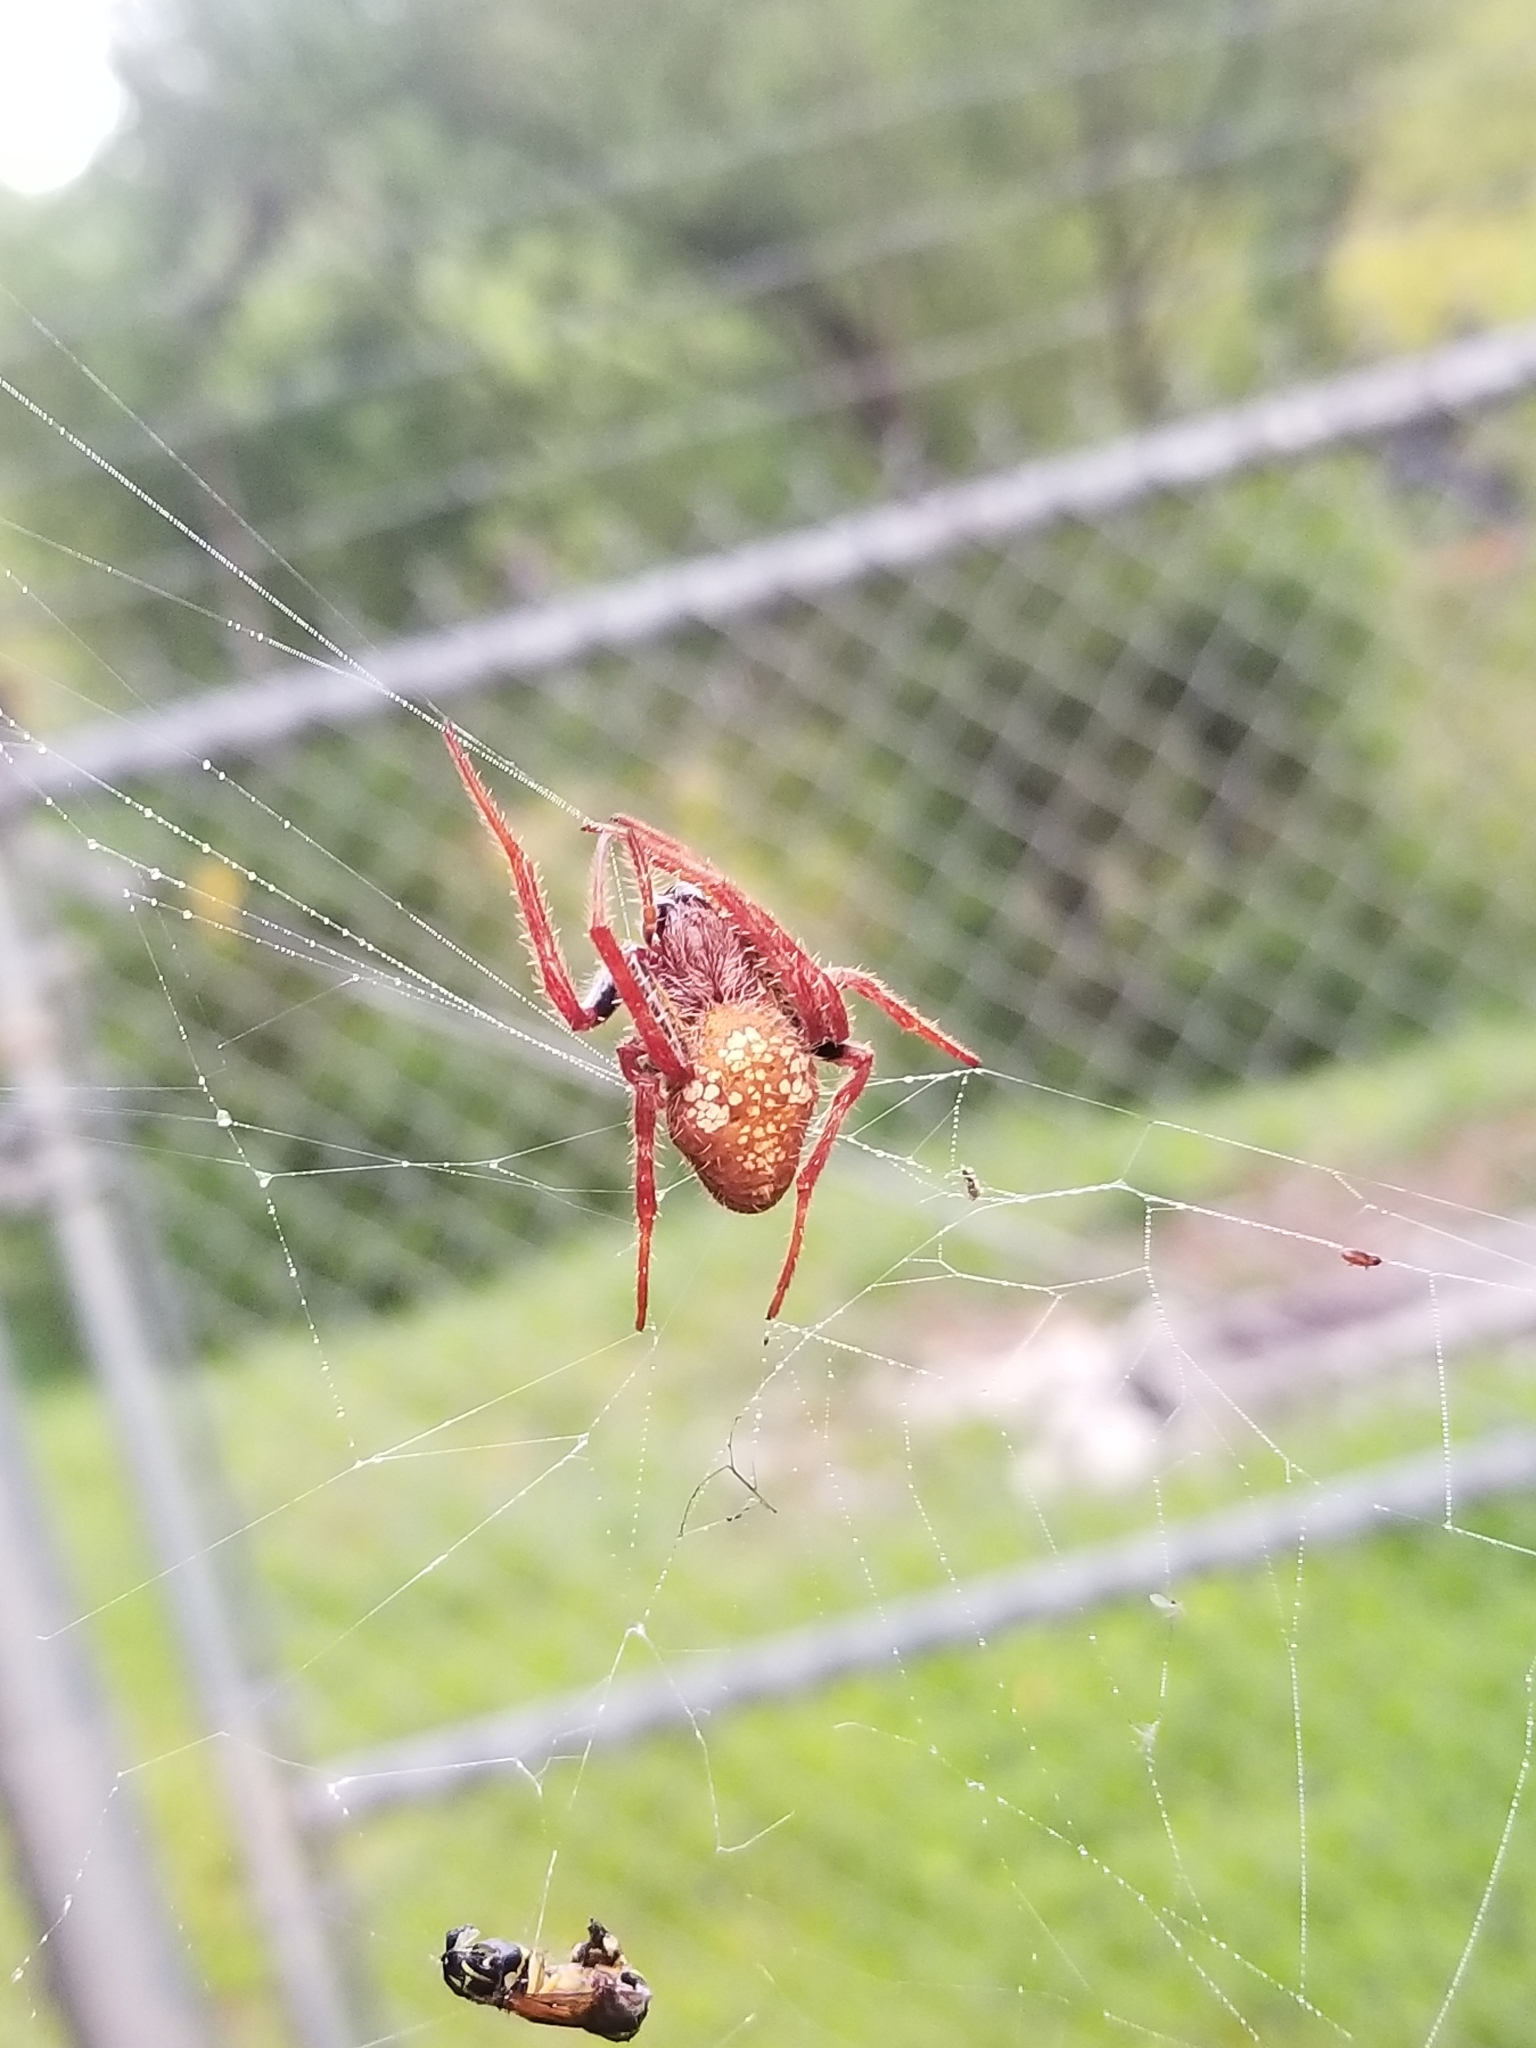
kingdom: Animalia
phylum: Arthropoda
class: Arachnida
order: Araneae
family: Araneidae
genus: Eriophora
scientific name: Eriophora ravilla
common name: Orb weavers
